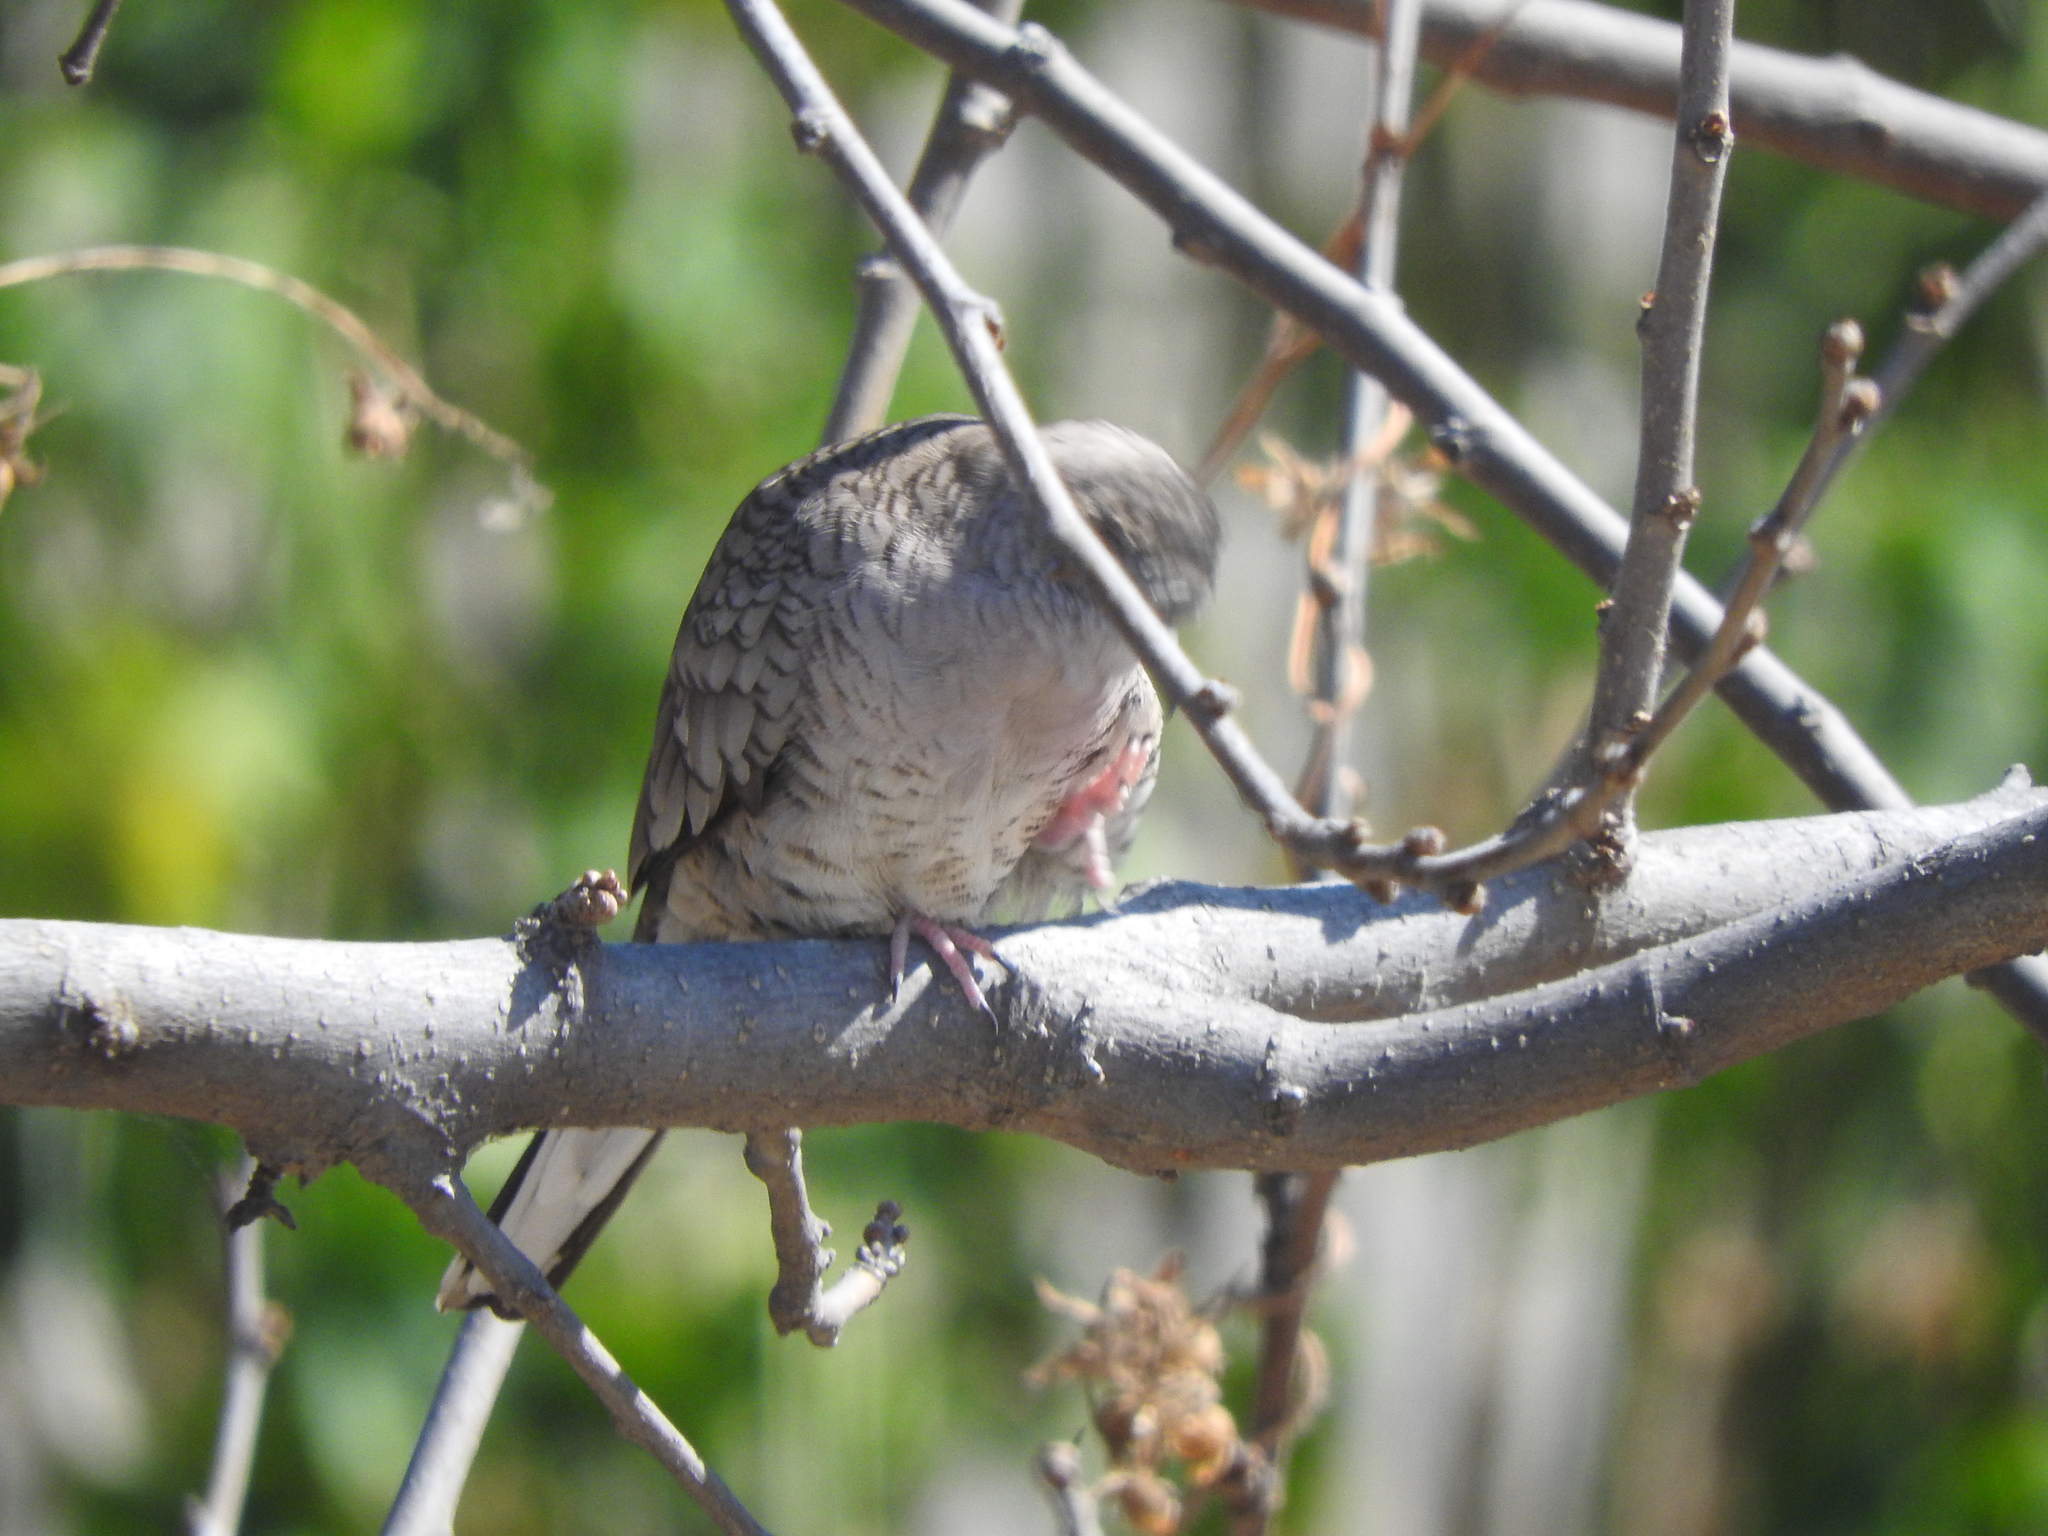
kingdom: Animalia
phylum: Chordata
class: Aves
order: Columbiformes
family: Columbidae
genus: Columbina
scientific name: Columbina inca
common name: Inca dove
